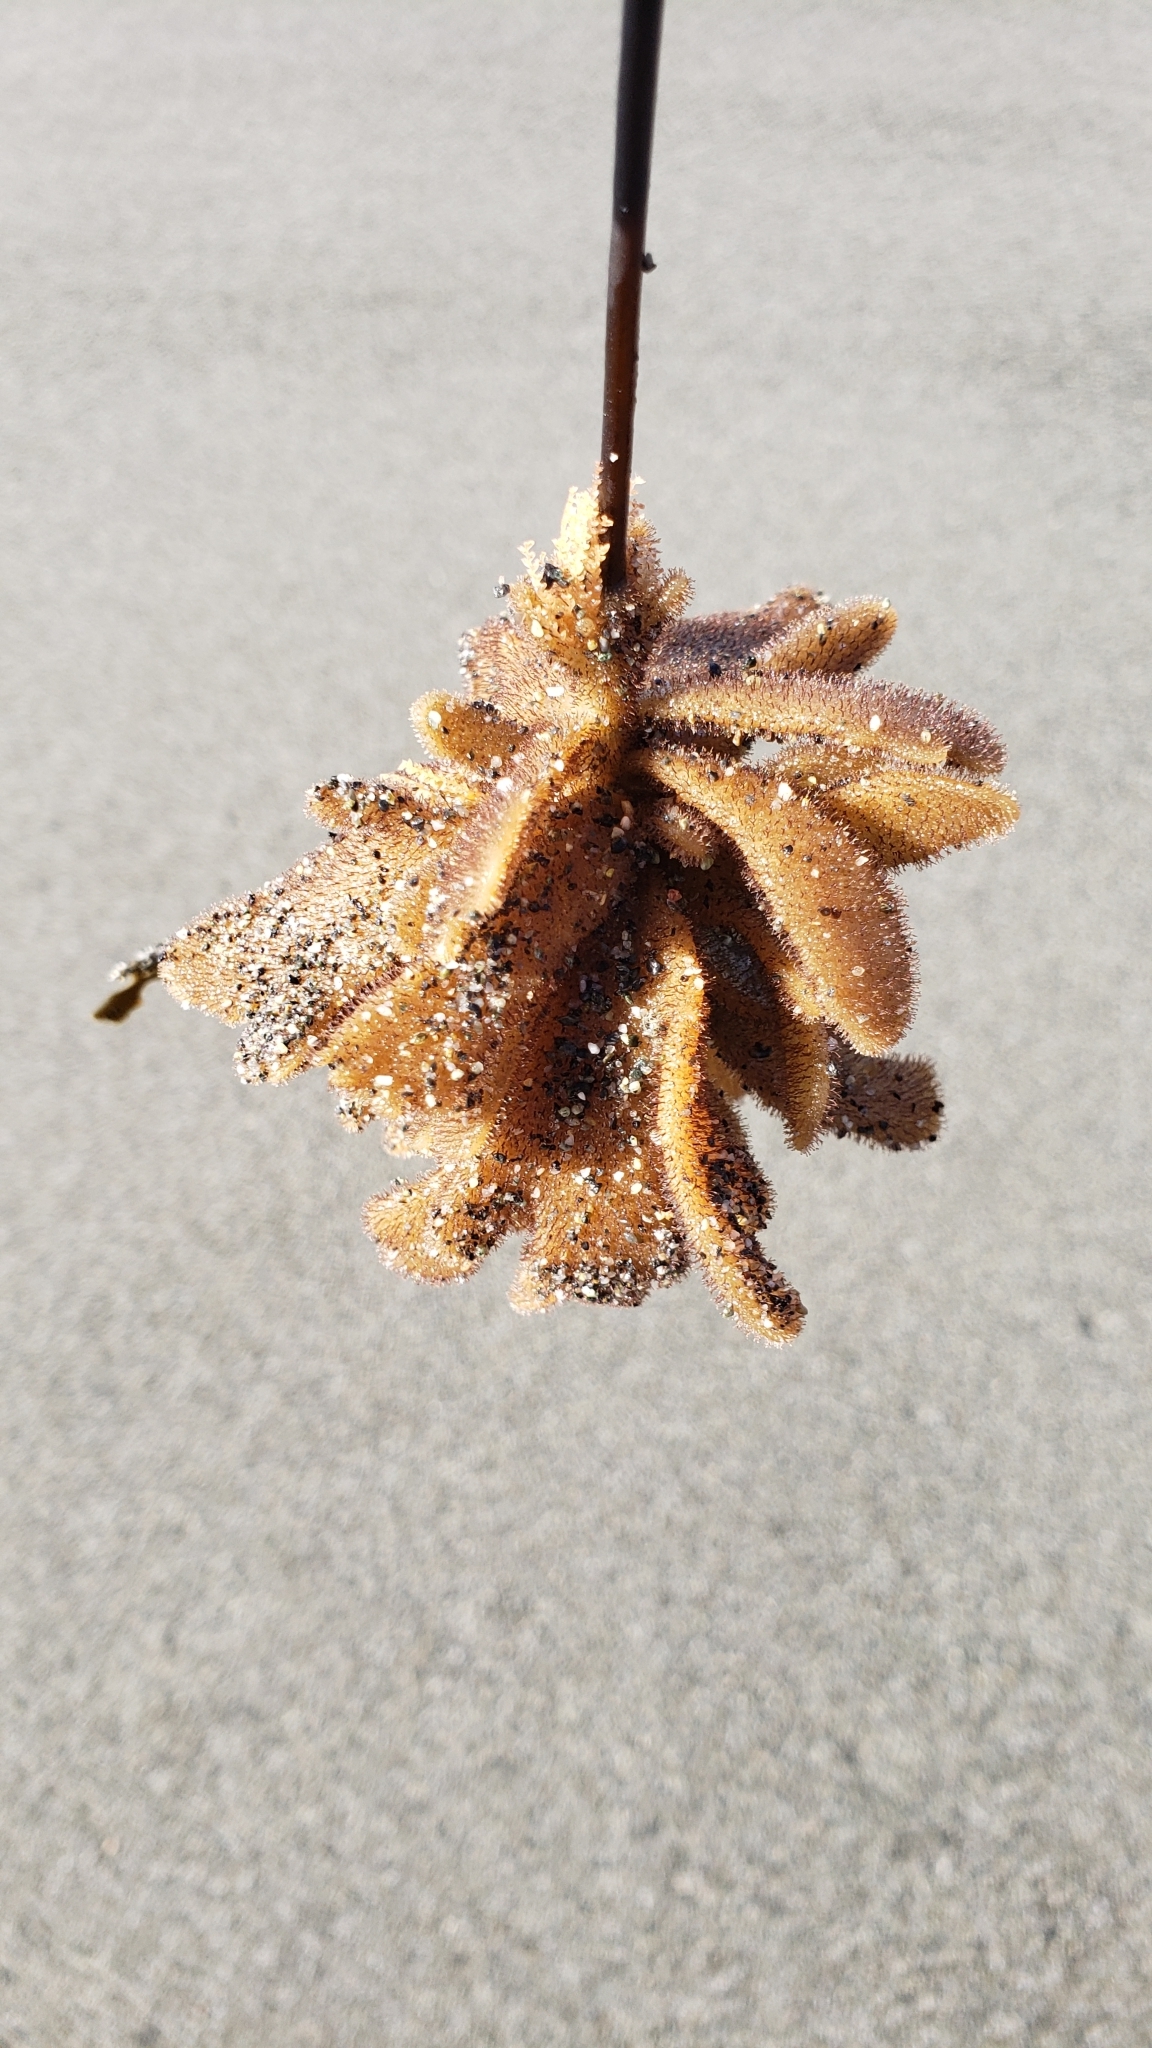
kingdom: Animalia
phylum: Bryozoa
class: Gymnolaemata
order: Ctenostomatida
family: Flustrellidridae
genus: Flustrellidra
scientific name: Flustrellidra corniculata
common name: Spiny leather bryozoan
